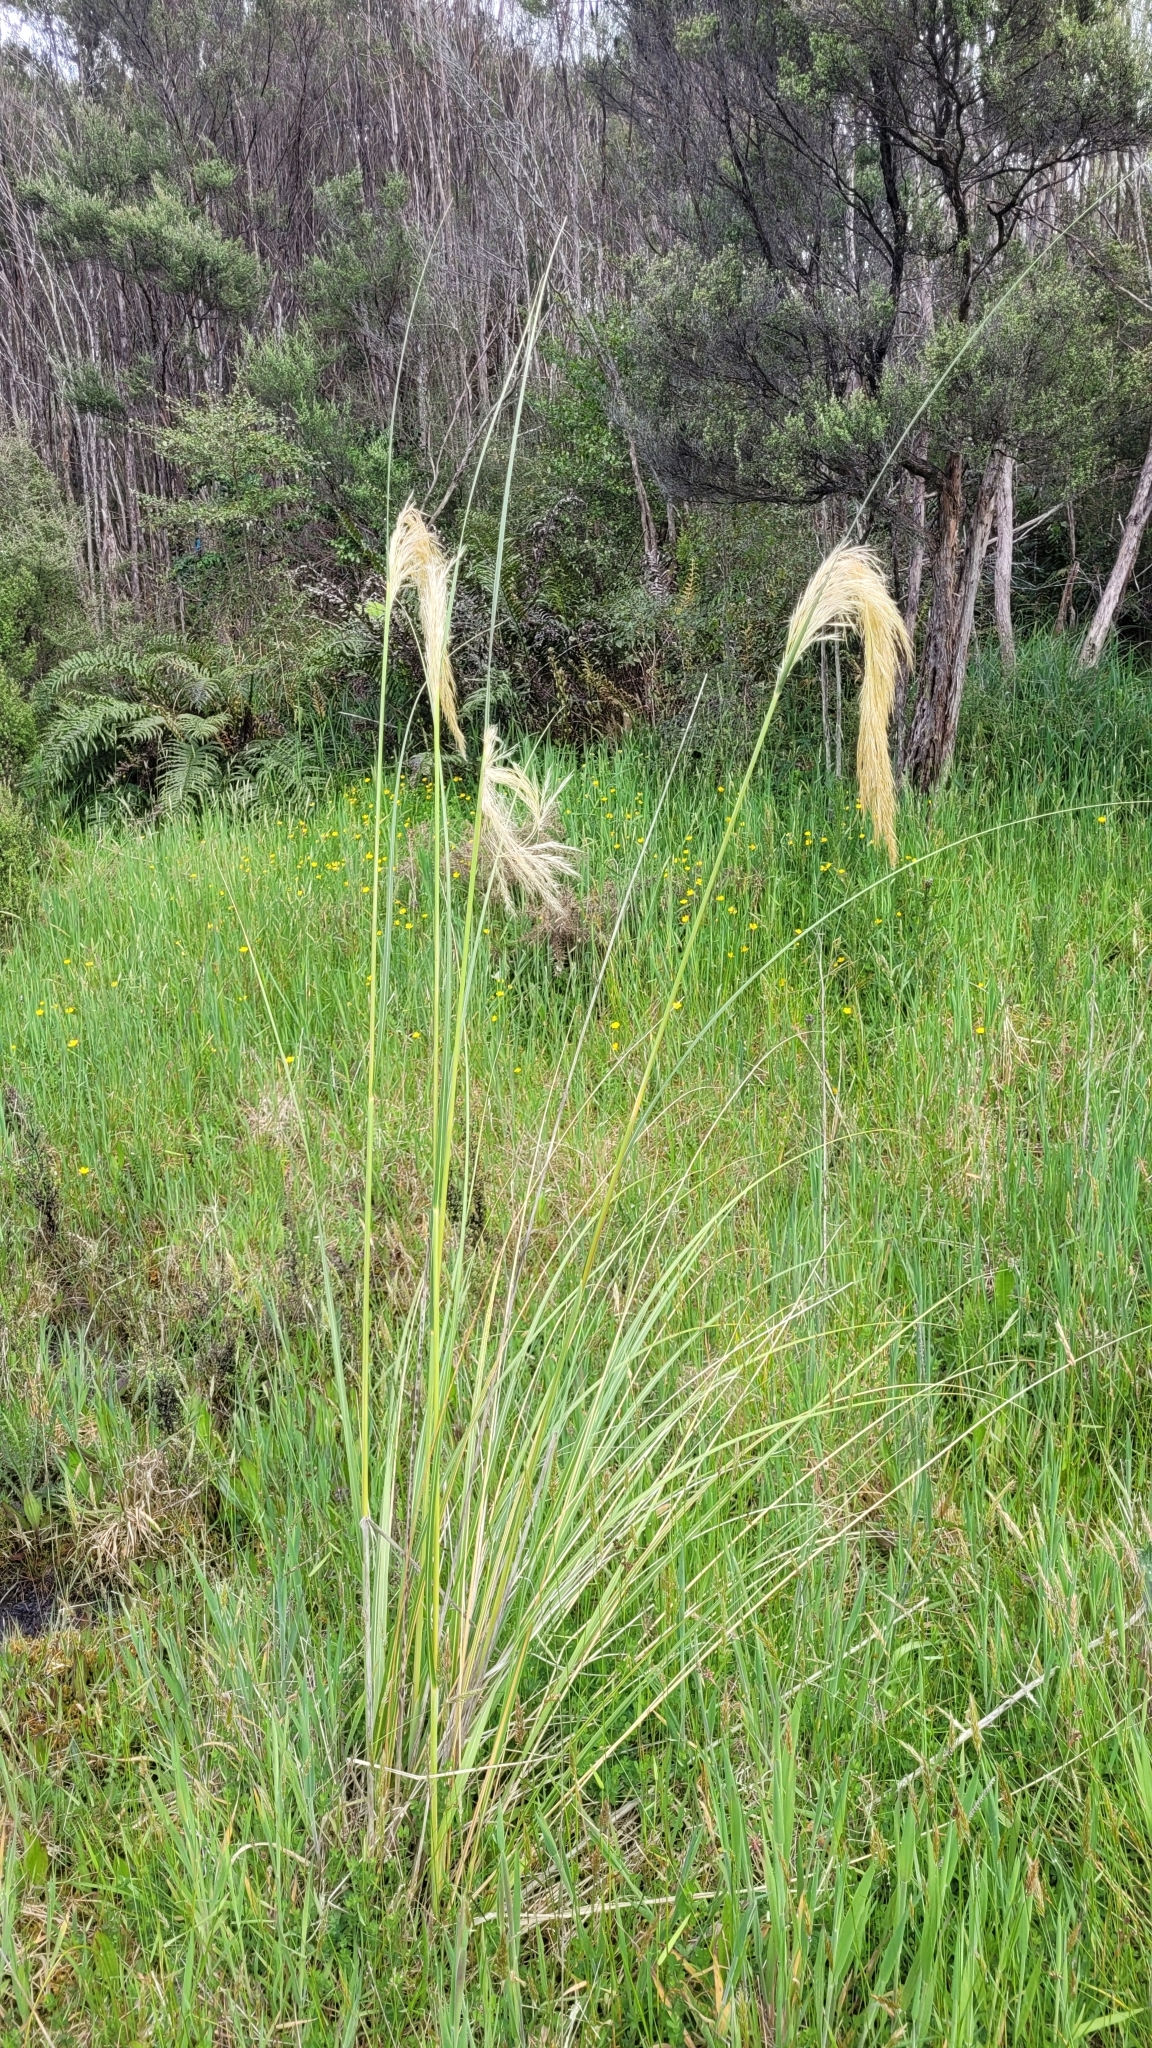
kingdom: Plantae
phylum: Tracheophyta
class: Liliopsida
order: Poales
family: Poaceae
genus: Austroderia
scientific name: Austroderia richardii
